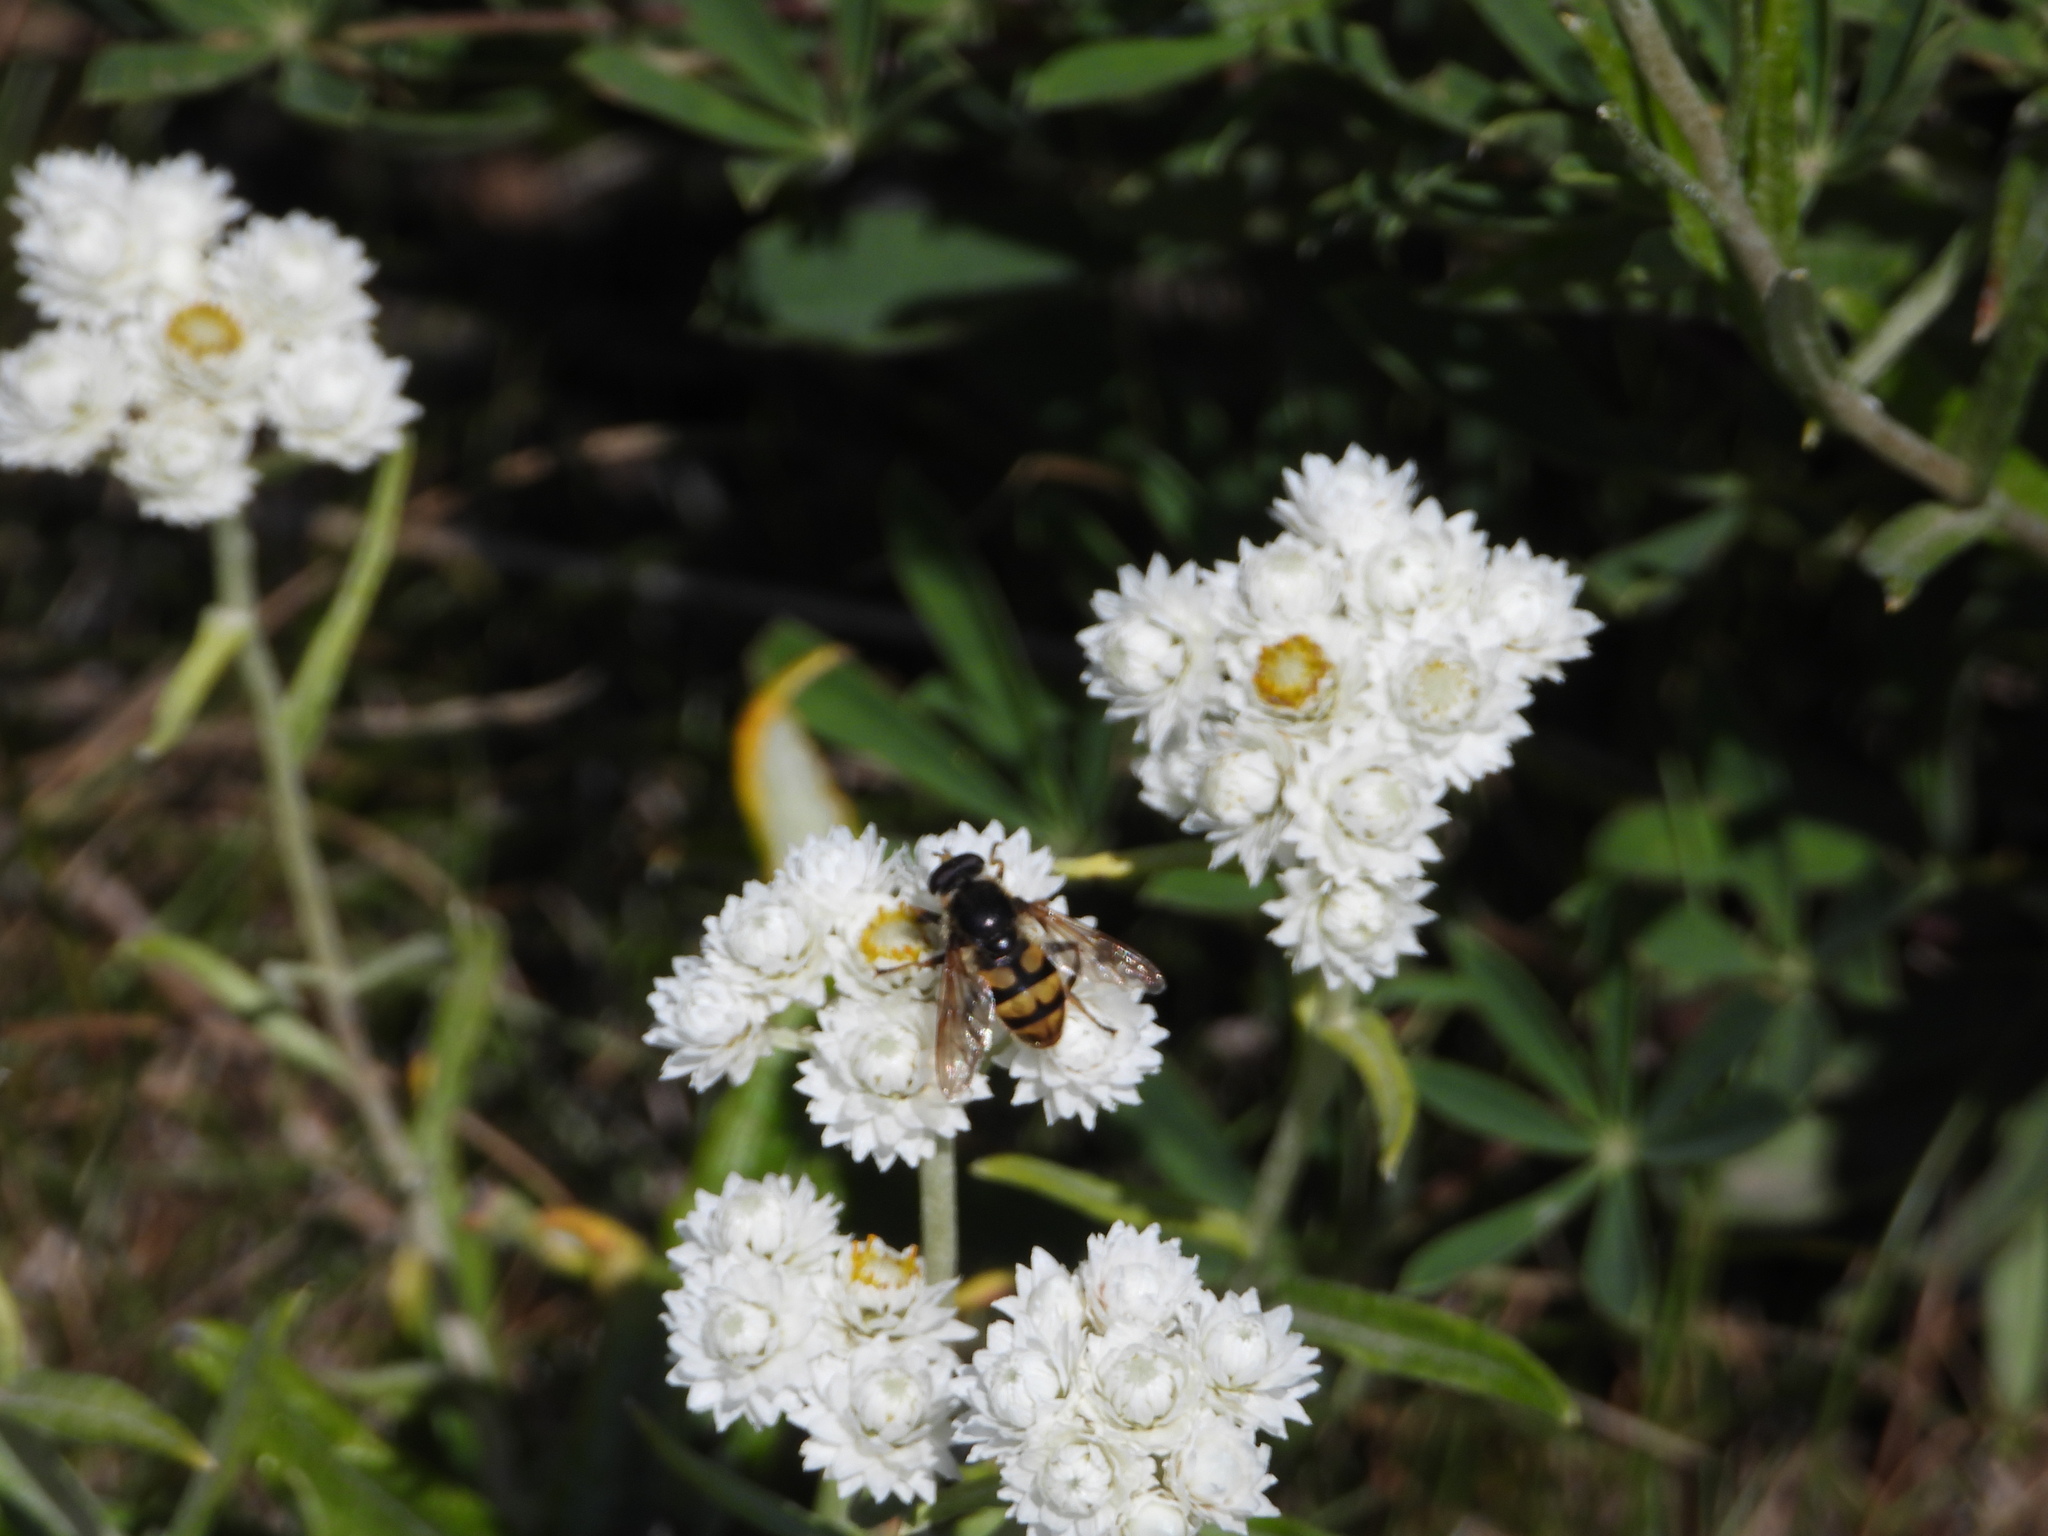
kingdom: Animalia
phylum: Arthropoda
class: Insecta
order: Diptera
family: Syrphidae
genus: Blera
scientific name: Blera scitula
